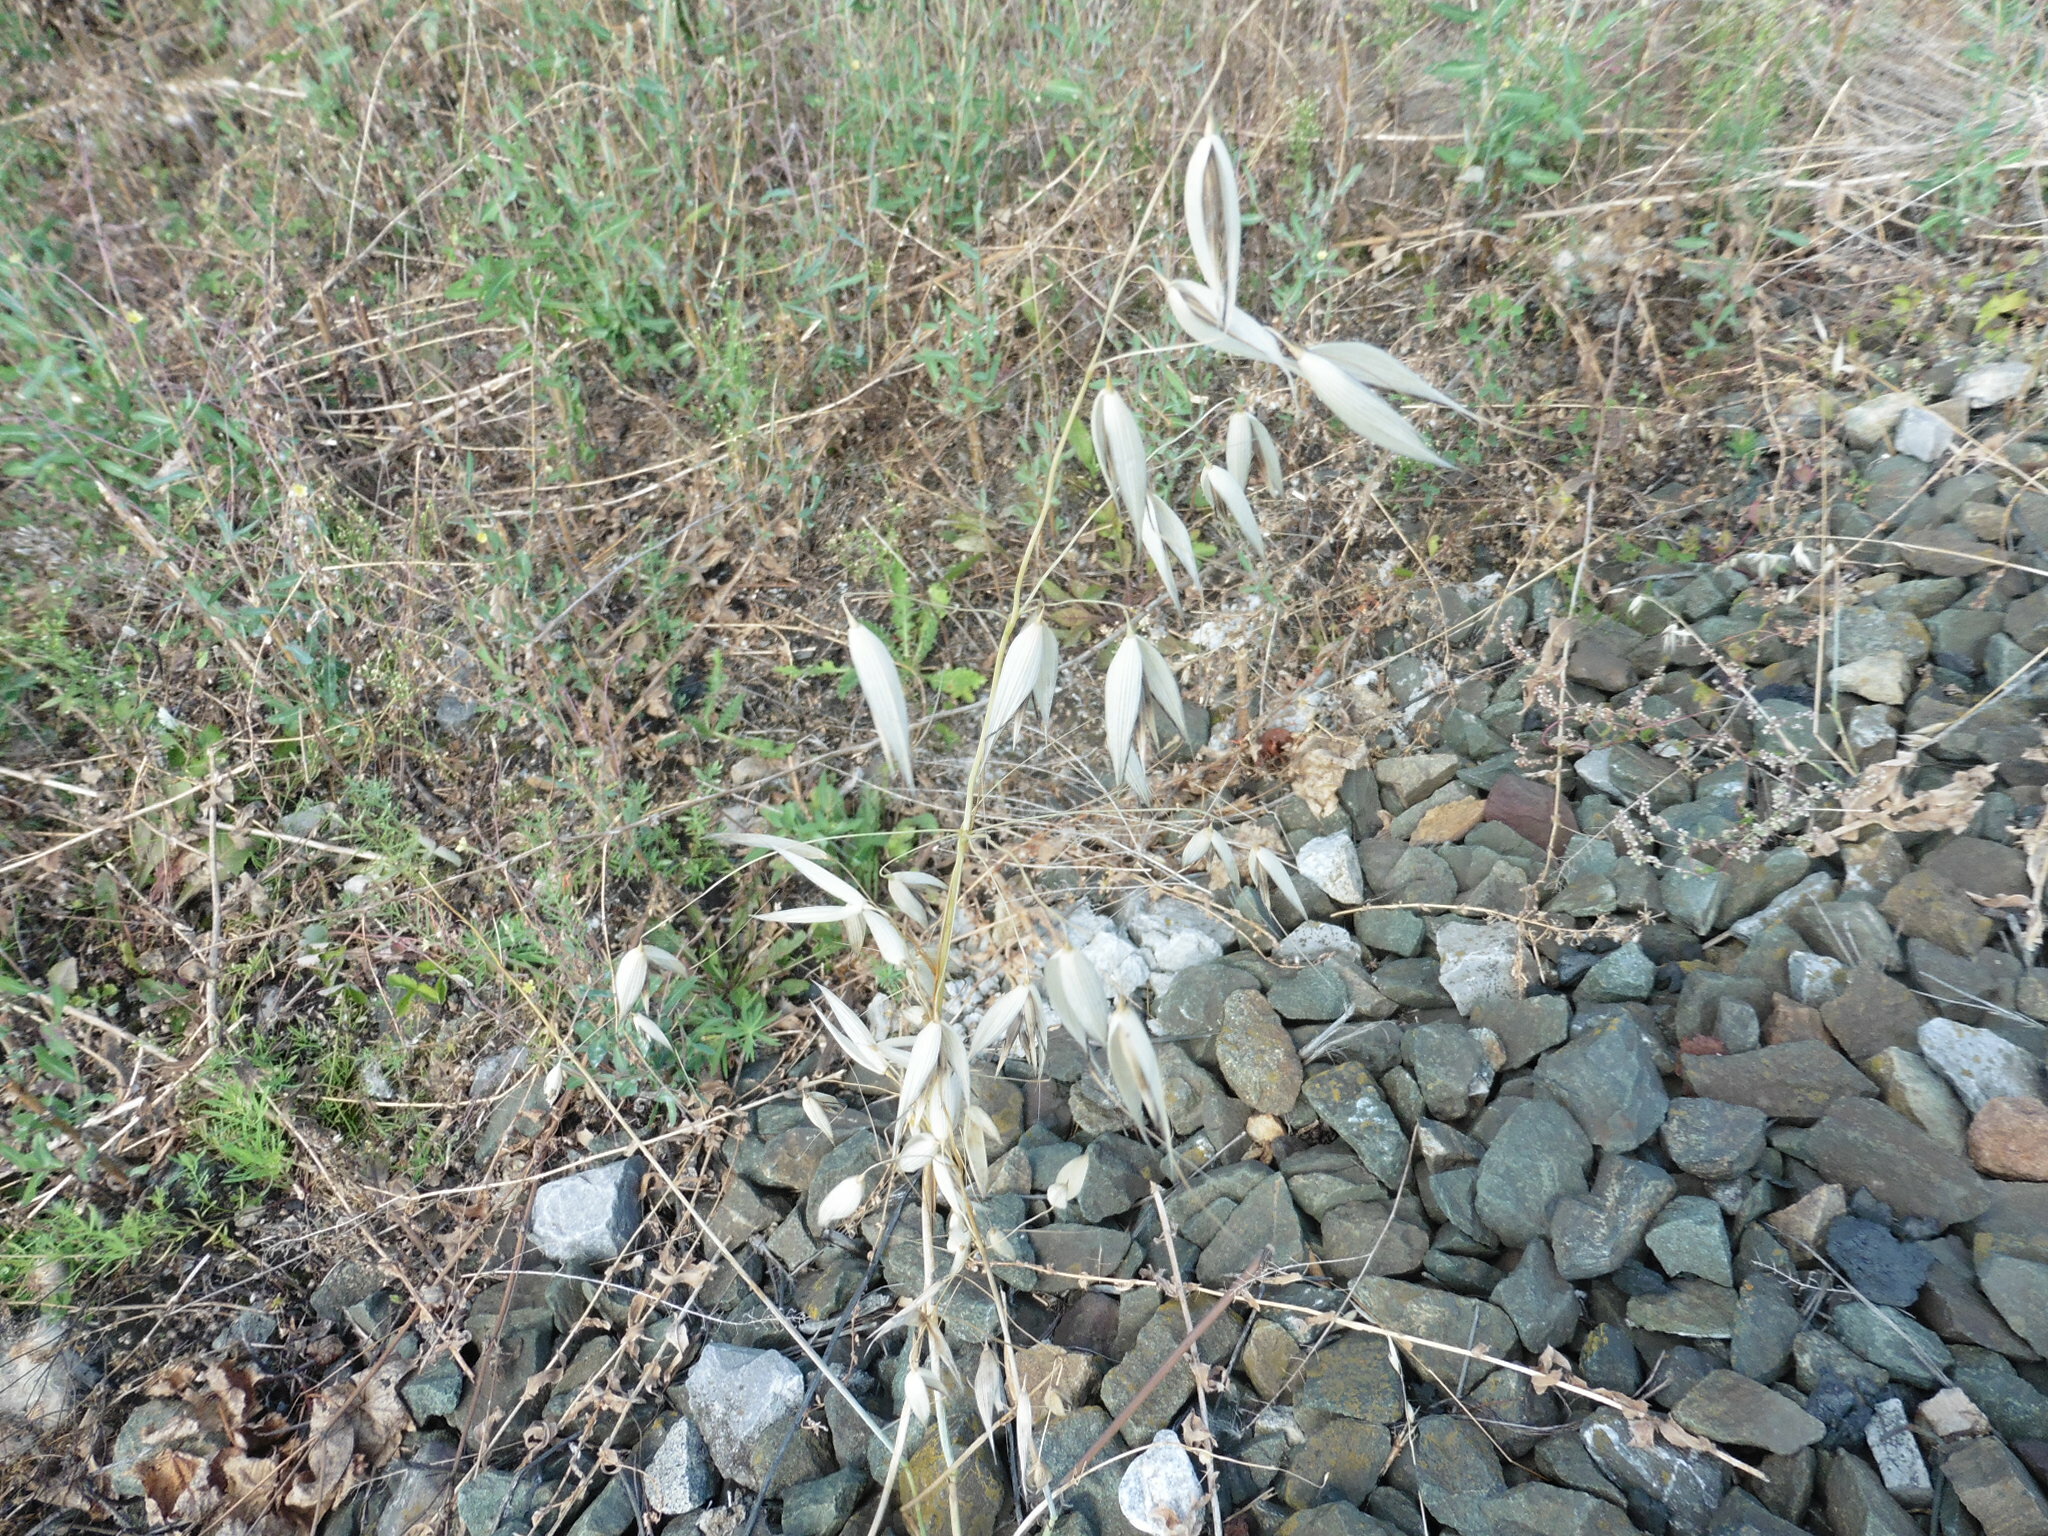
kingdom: Plantae
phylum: Tracheophyta
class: Liliopsida
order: Poales
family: Poaceae
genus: Avena
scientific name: Avena fatua
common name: Wild oat
